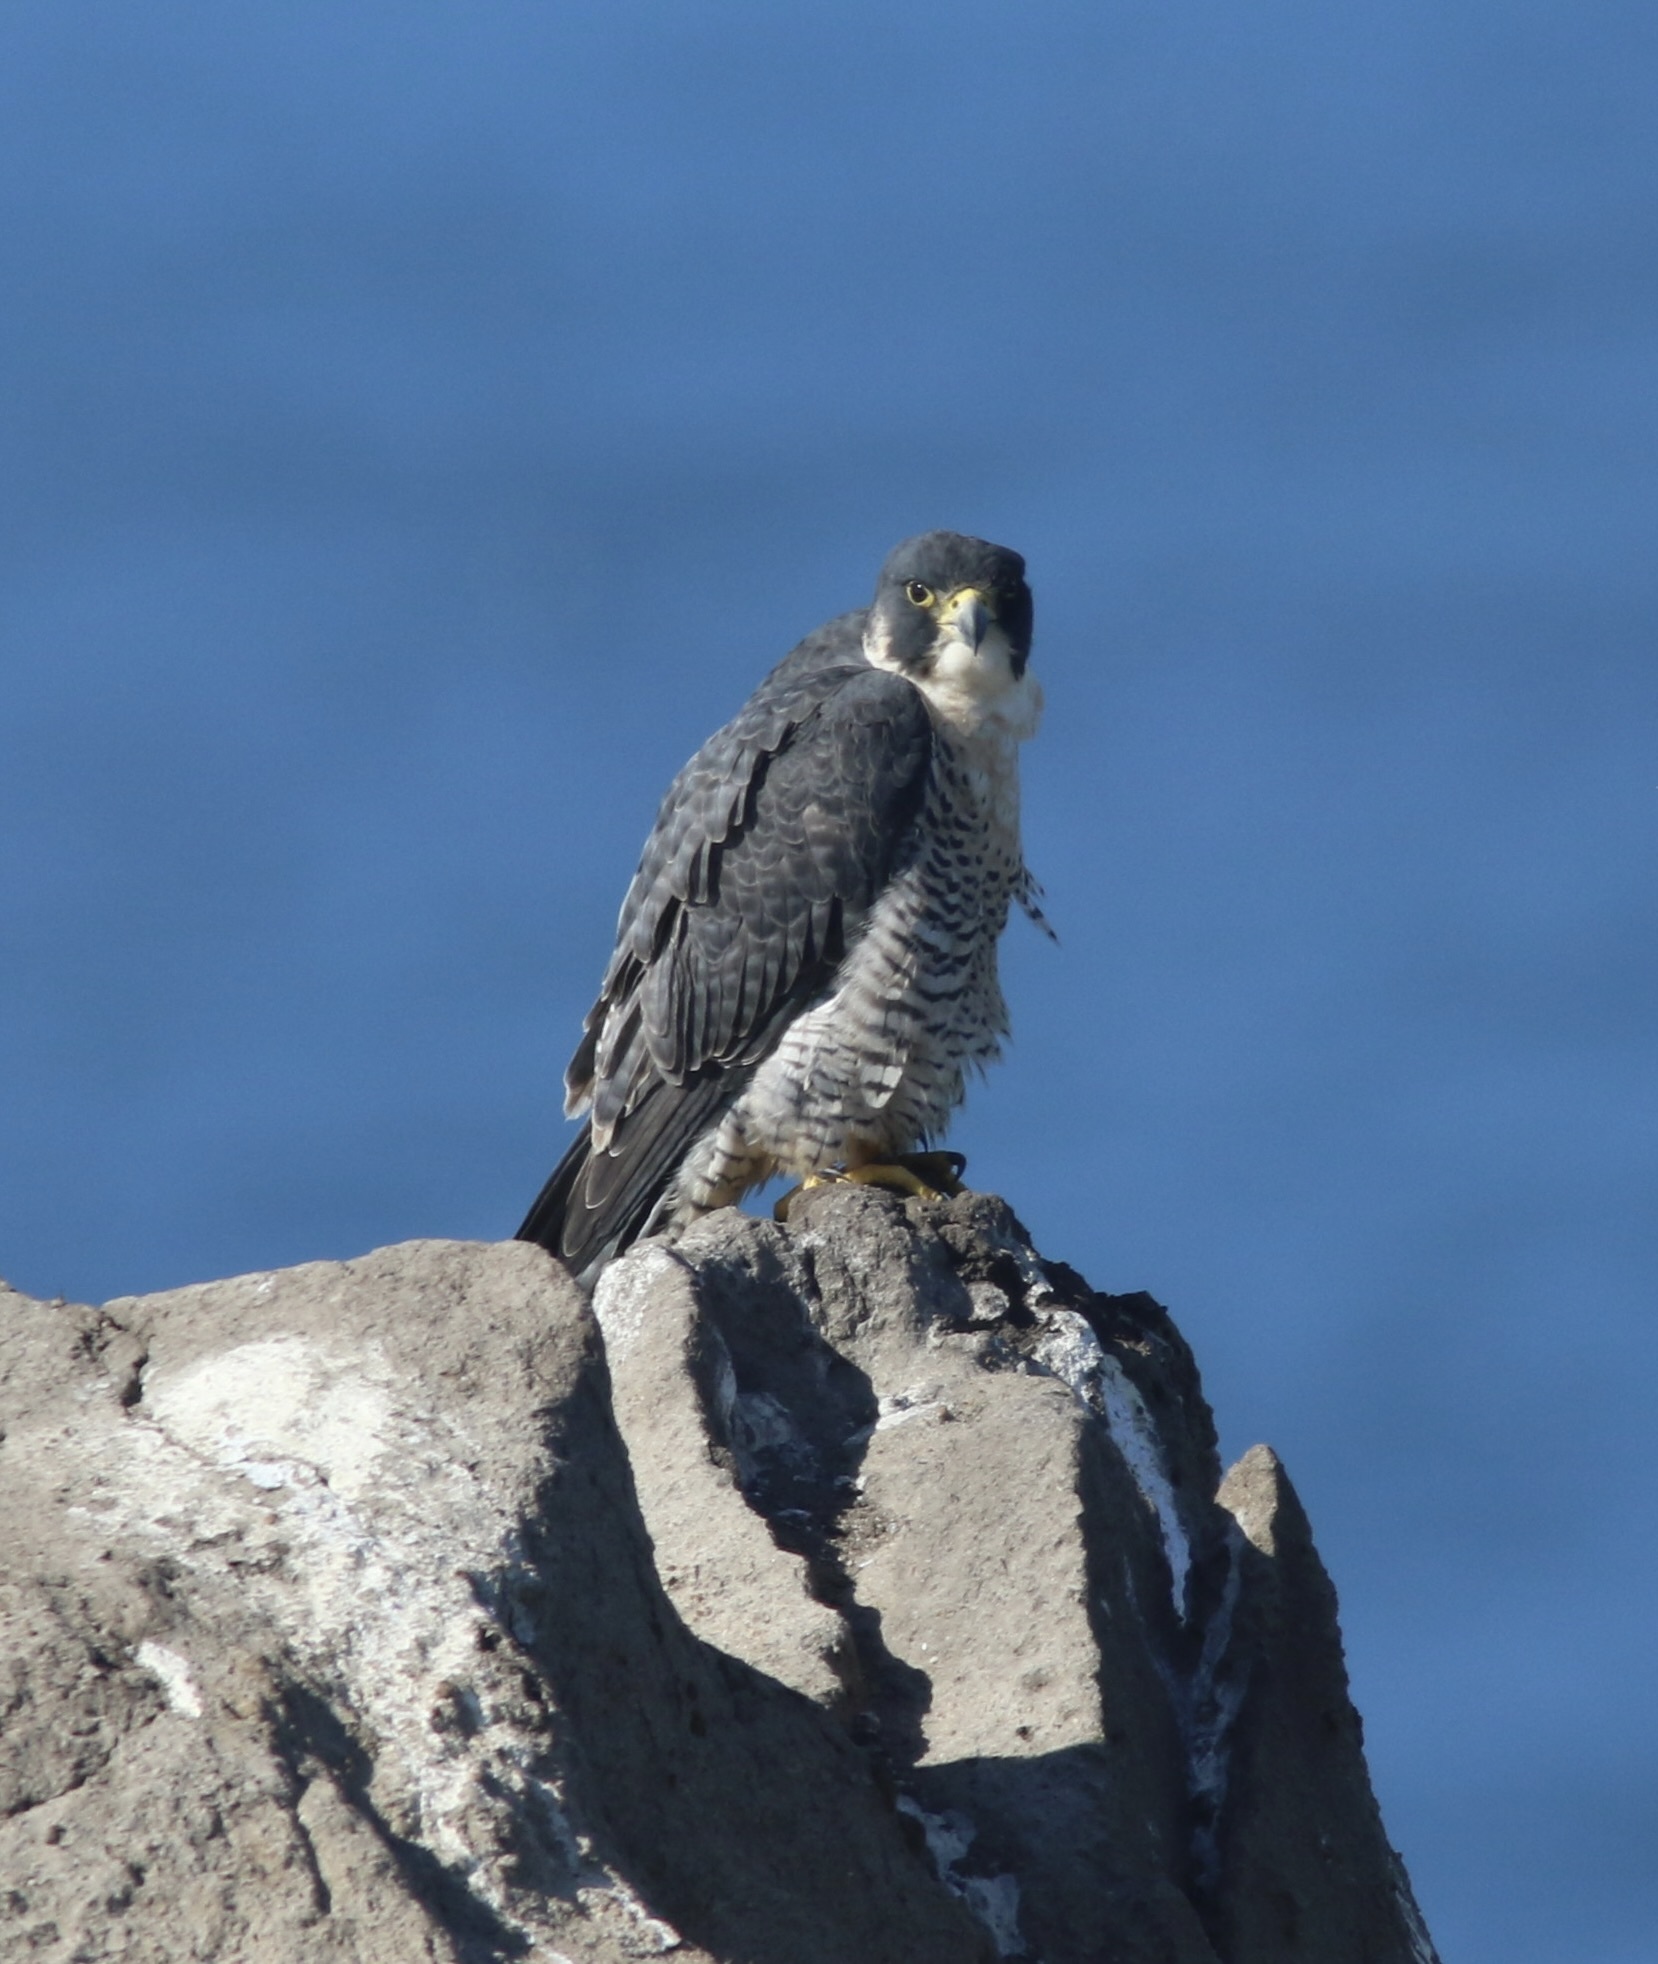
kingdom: Animalia
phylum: Chordata
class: Aves
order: Falconiformes
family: Falconidae
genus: Falco
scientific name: Falco peregrinus
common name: Peregrine falcon
